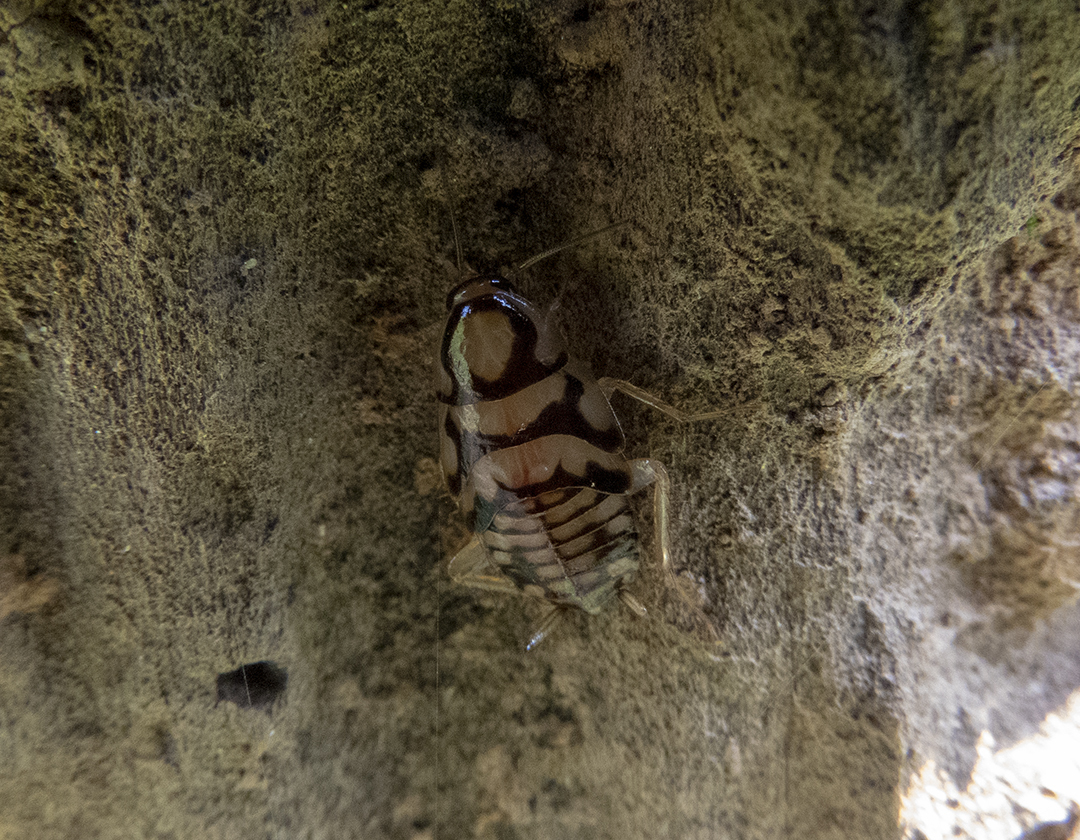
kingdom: Animalia
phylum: Arthropoda
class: Insecta
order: Blattodea
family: Ectobiidae
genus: Allacta
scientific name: Allacta figurata
